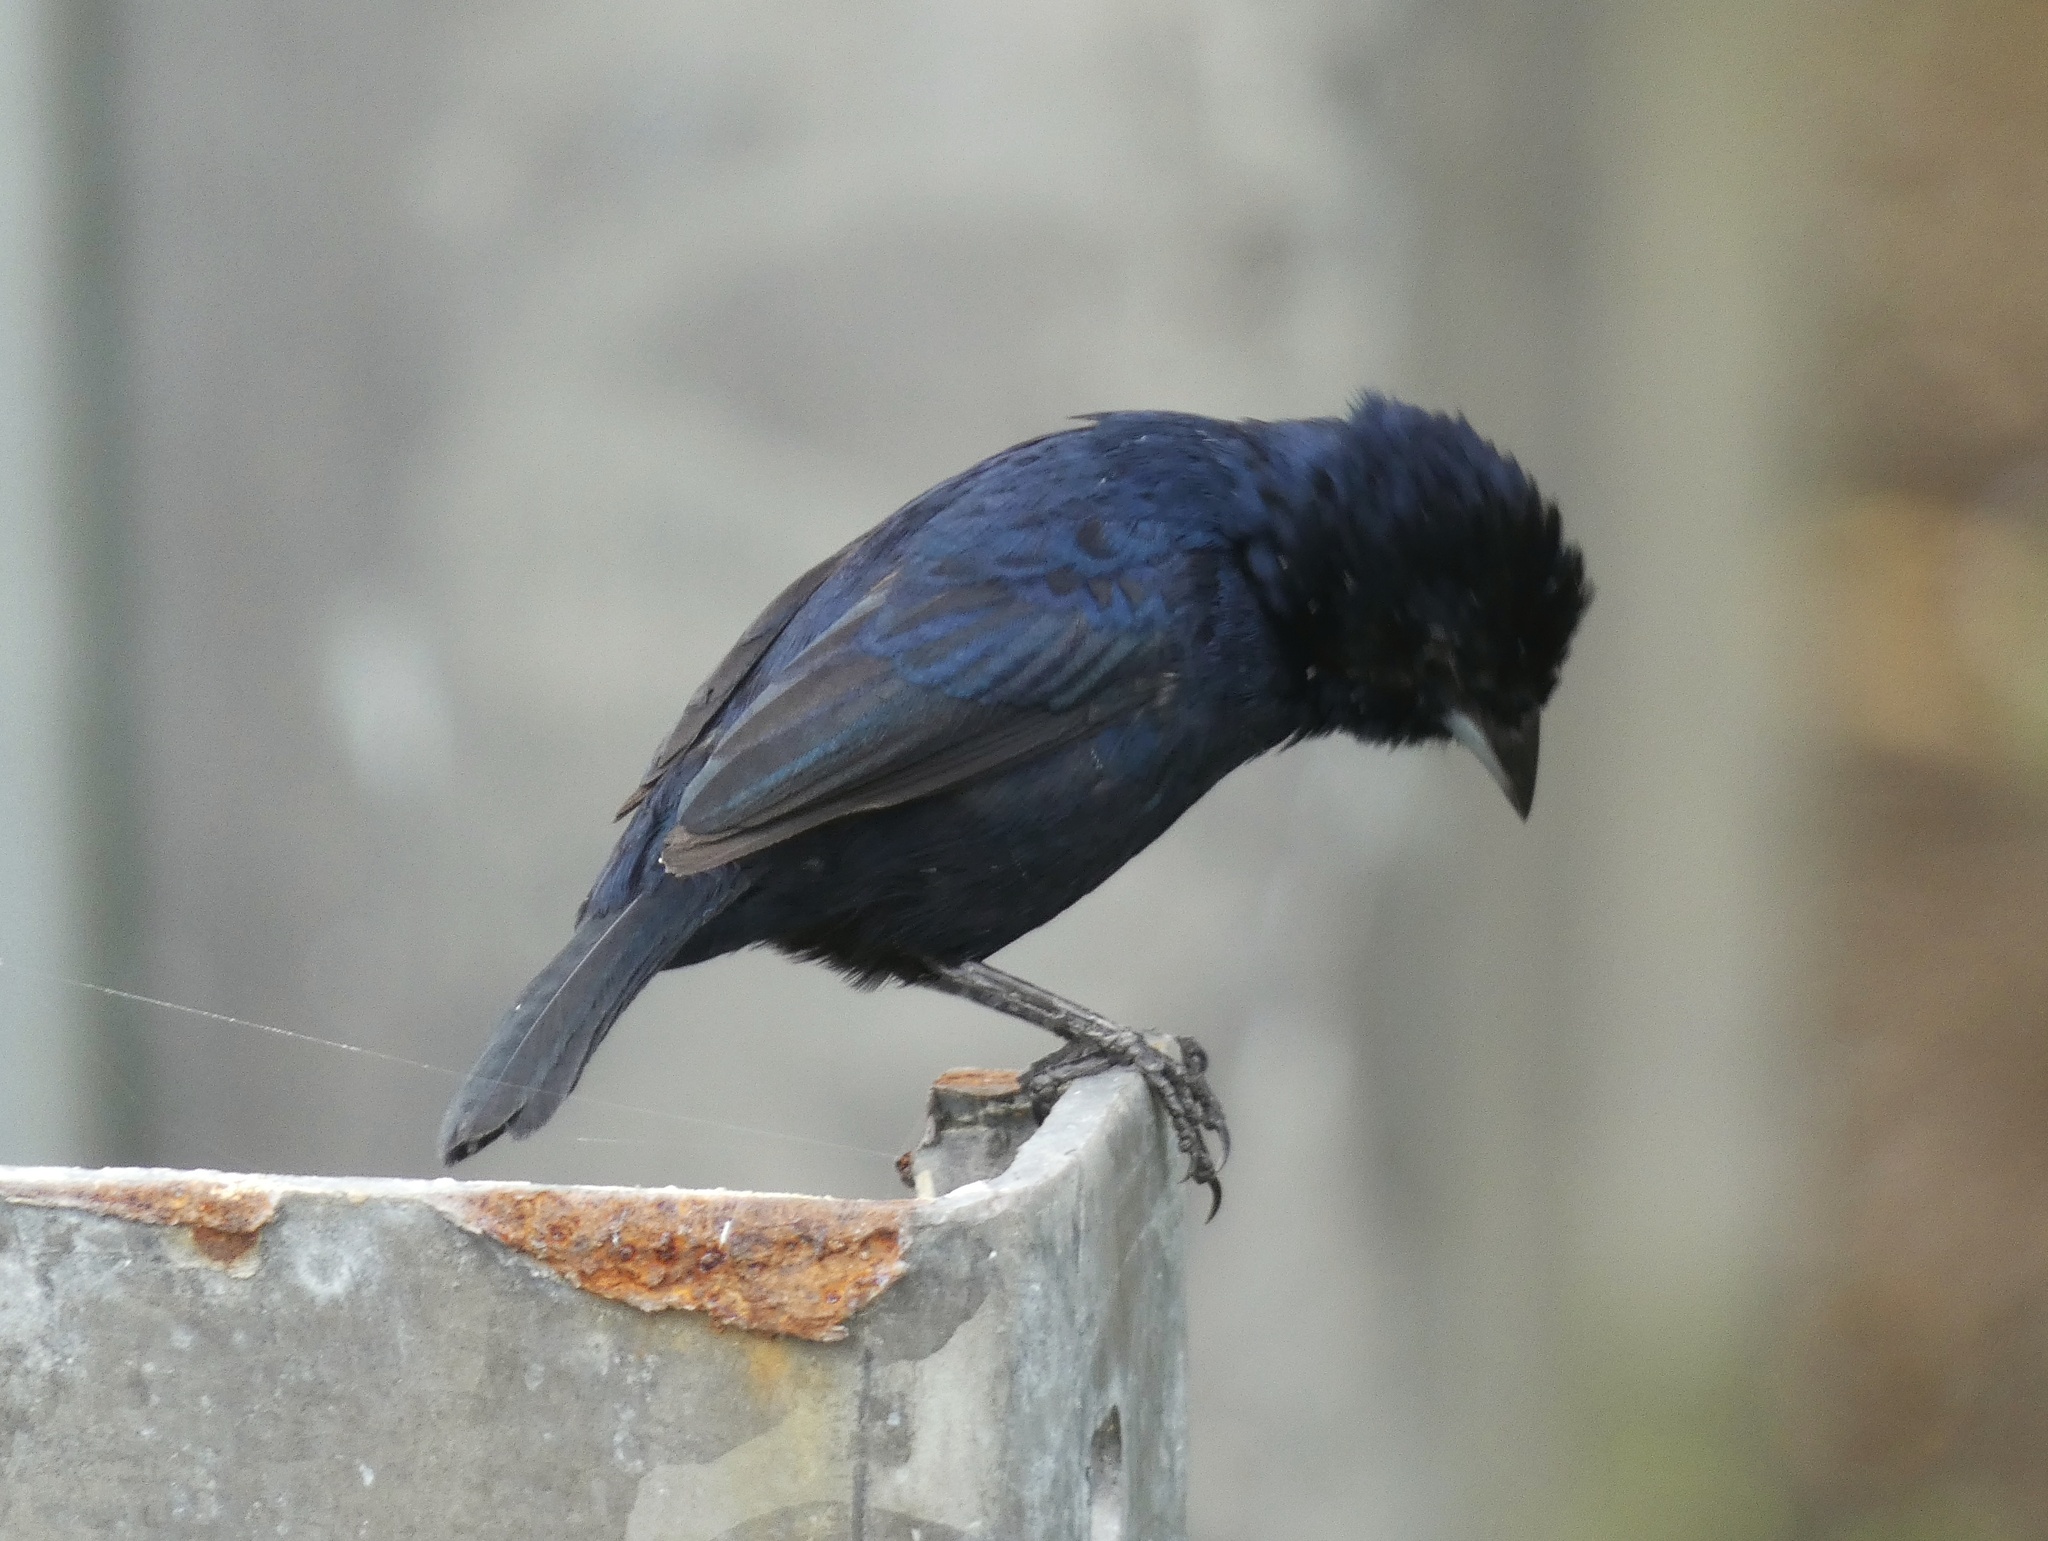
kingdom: Animalia
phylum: Chordata
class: Aves
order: Passeriformes
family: Thraupidae
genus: Volatinia
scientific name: Volatinia jacarina
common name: Blue-black grassquit
